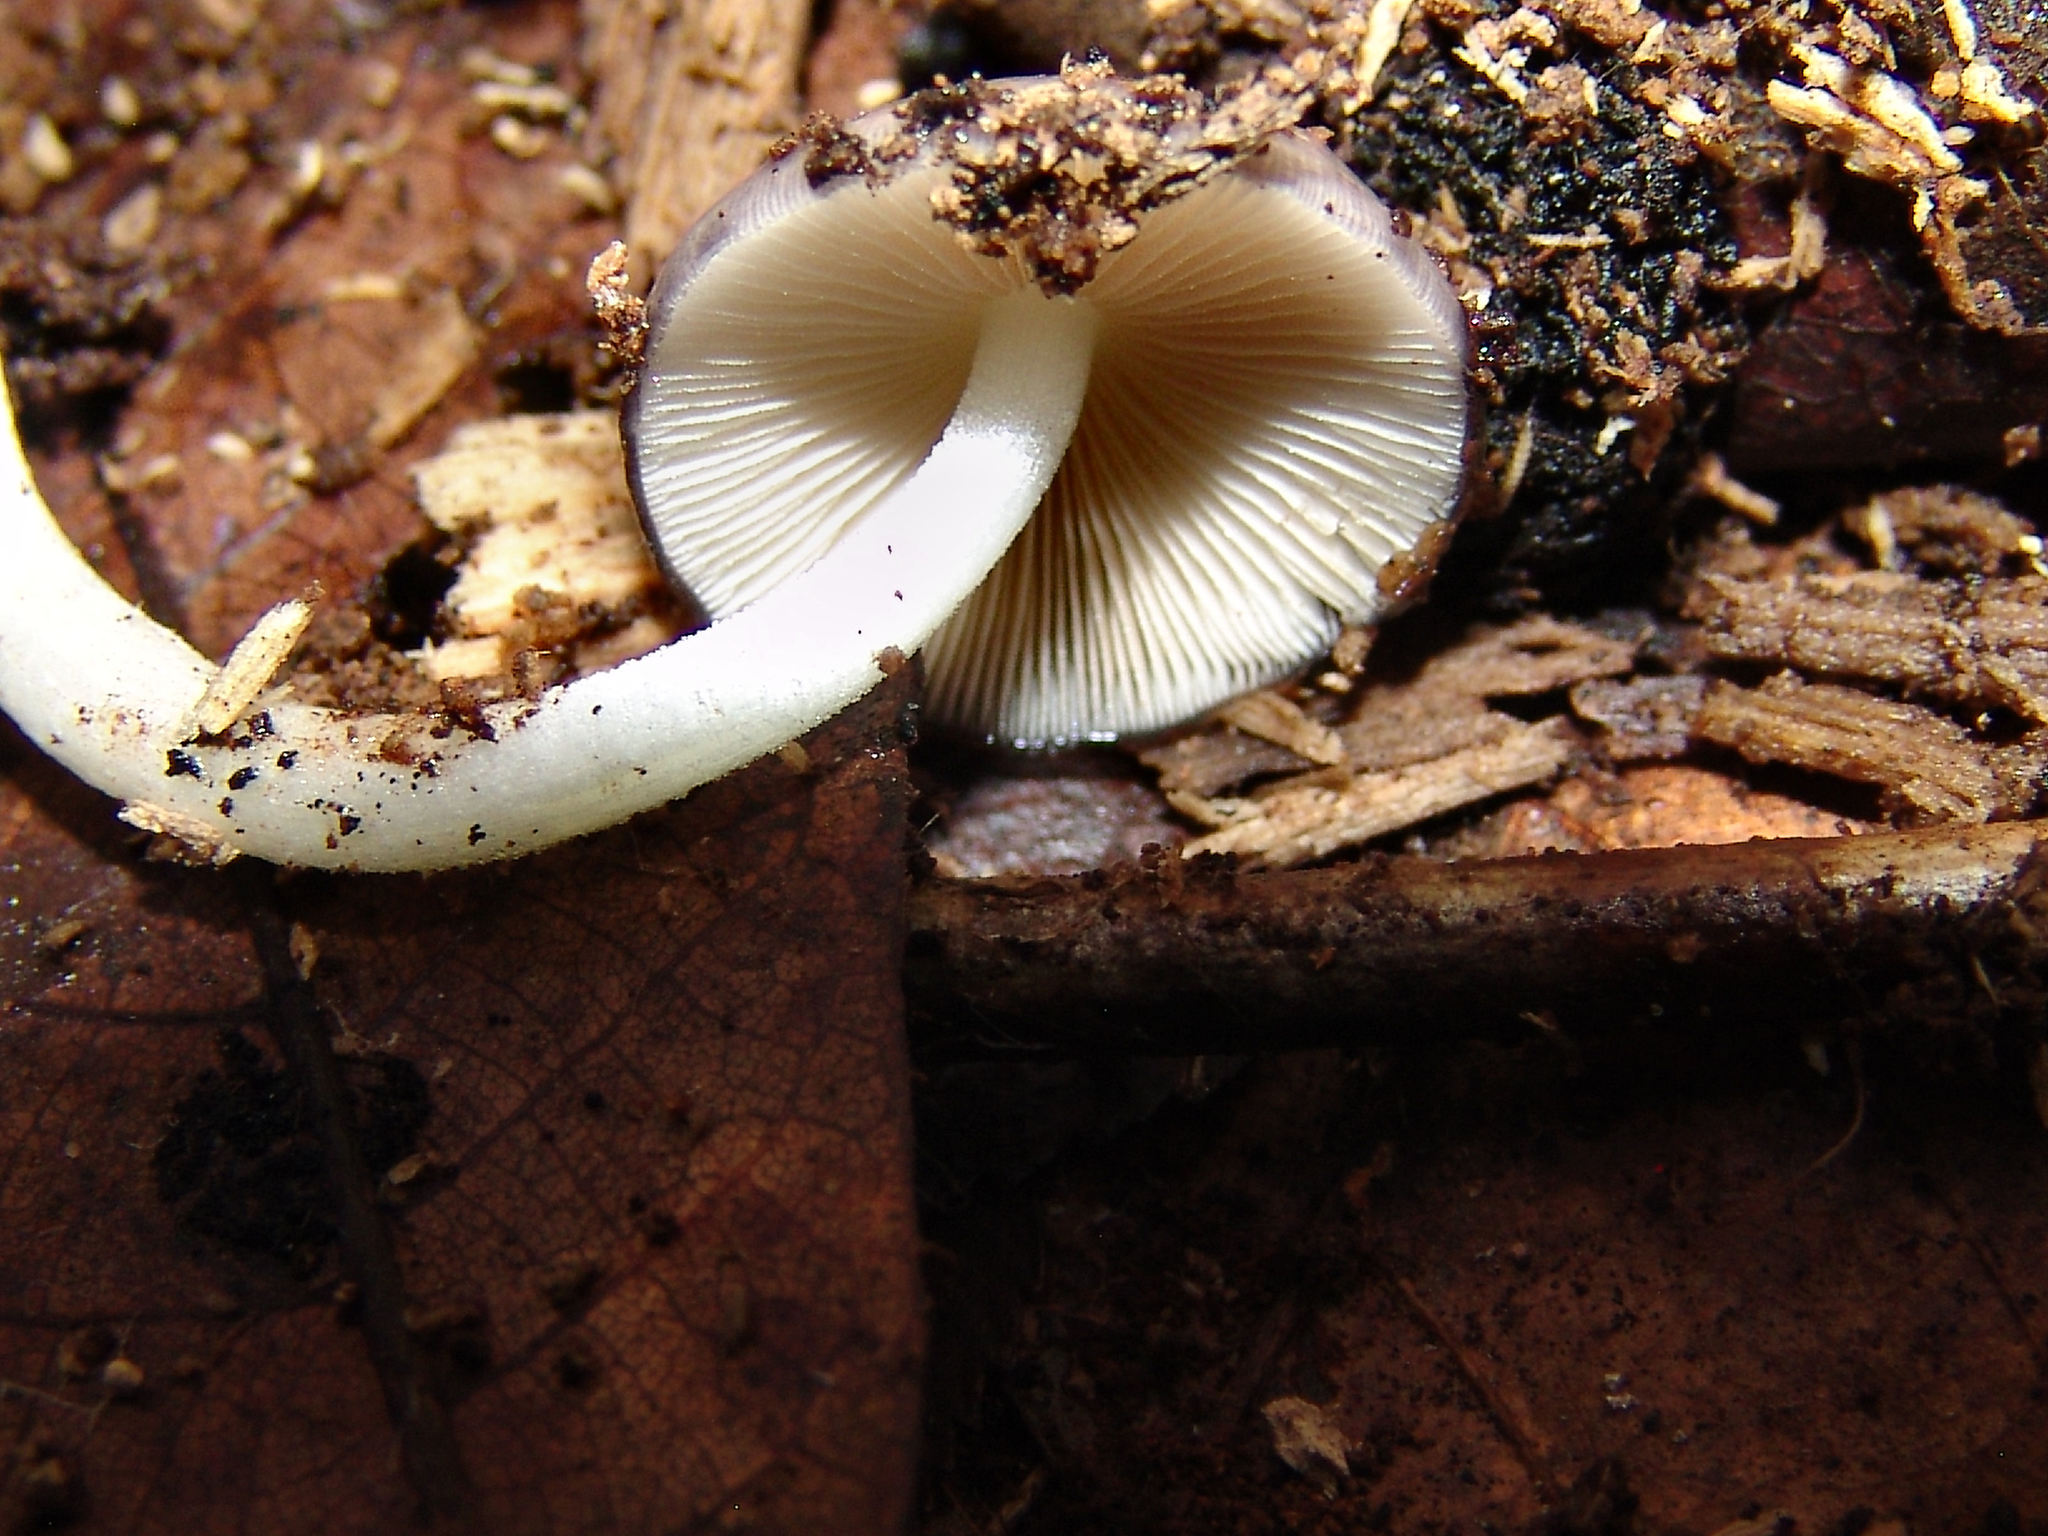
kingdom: Fungi
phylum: Basidiomycota
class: Agaricomycetes
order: Agaricales
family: Bolbitiaceae
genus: Bolbitius
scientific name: Bolbitius reticulatus
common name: Netted fieldcap
